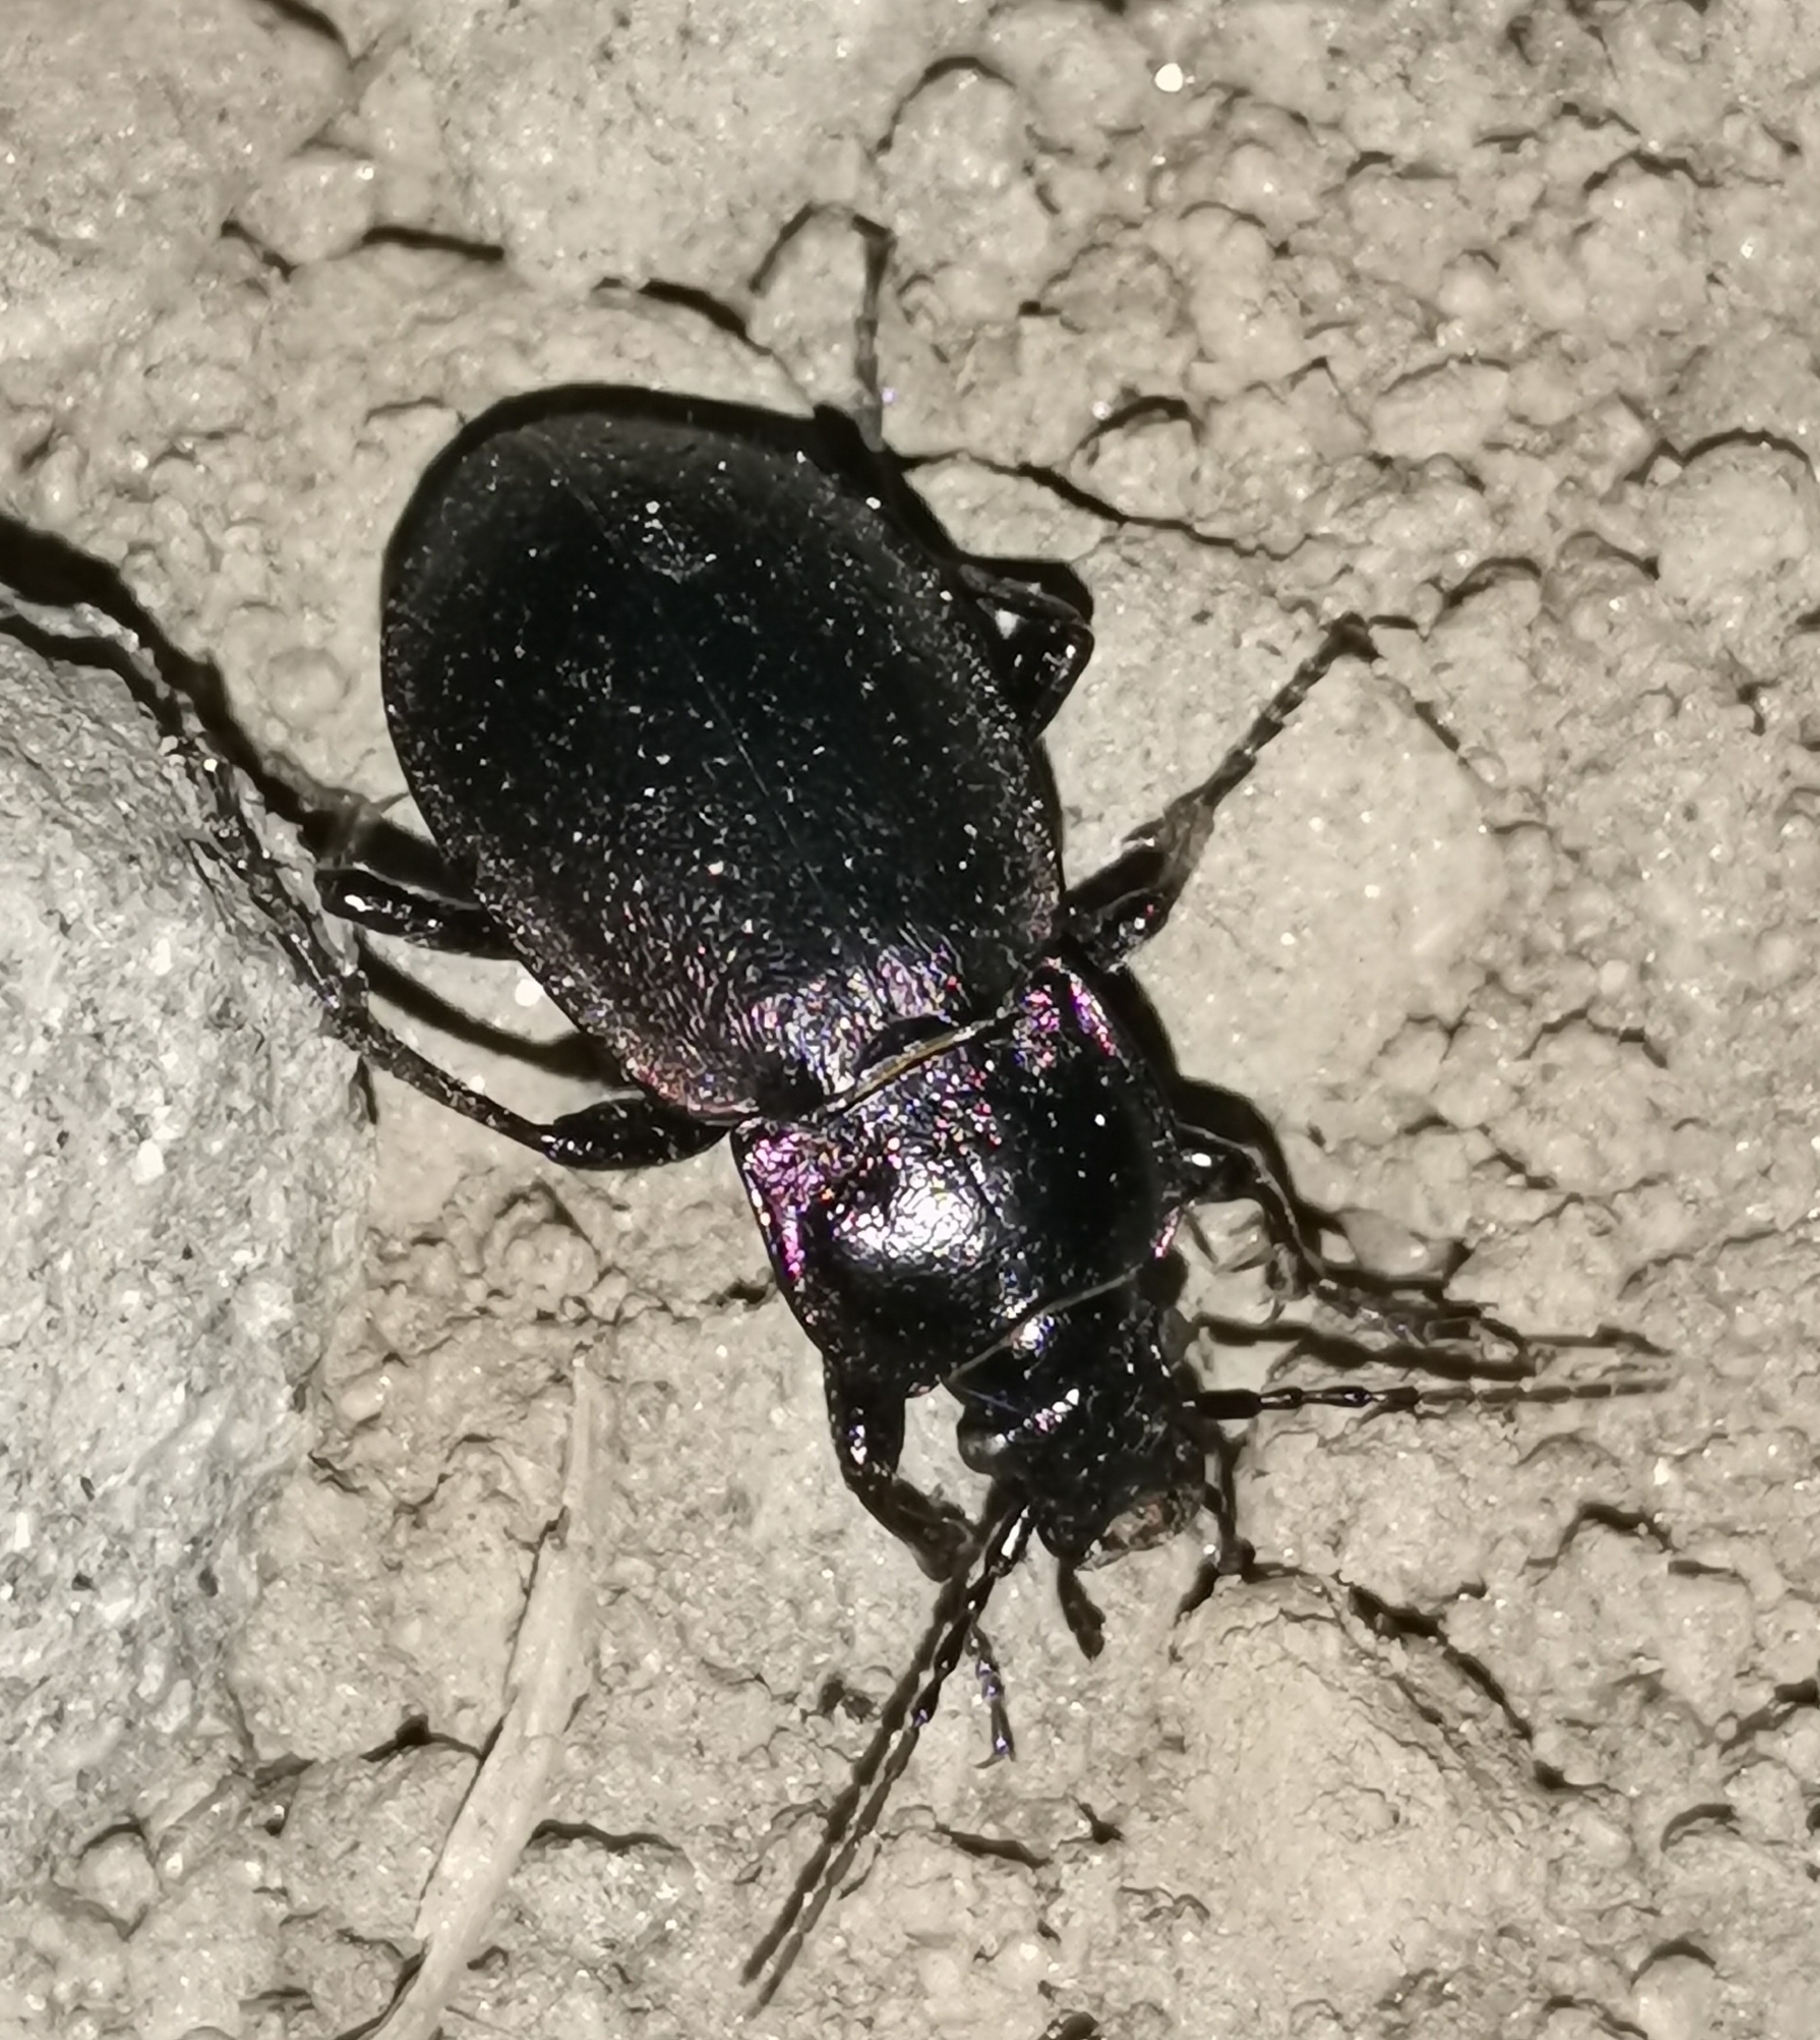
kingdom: Animalia
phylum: Arthropoda
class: Insecta
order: Coleoptera
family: Carabidae
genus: Carabus
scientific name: Carabus nemoralis
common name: European ground beetle
